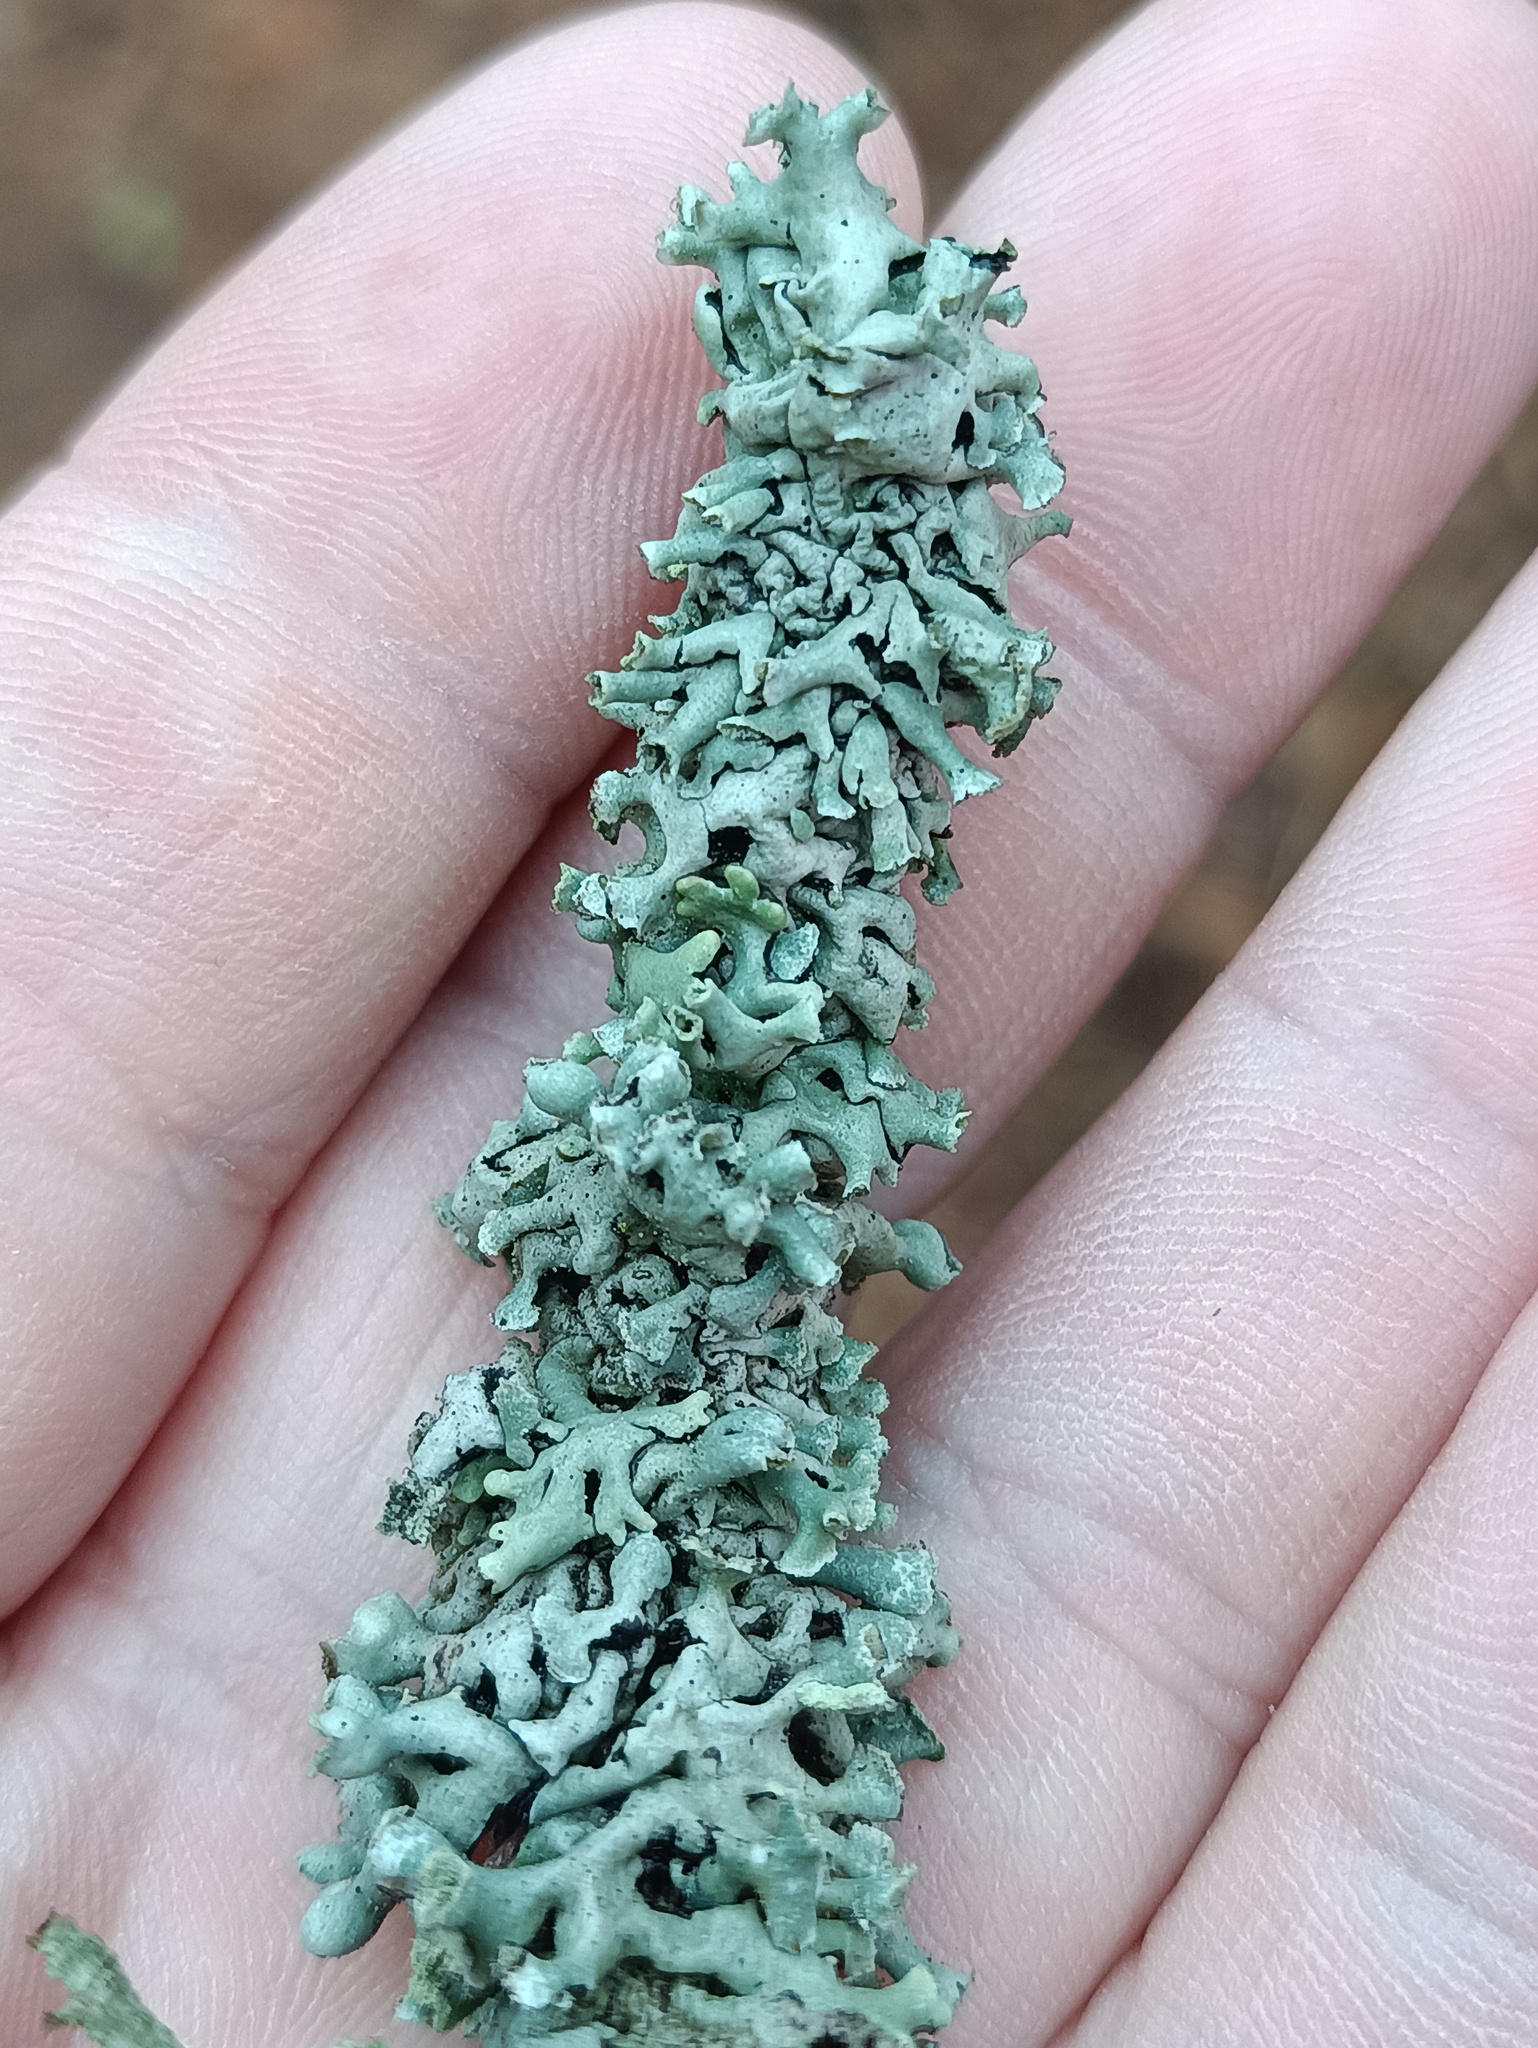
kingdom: Fungi
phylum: Ascomycota
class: Lecanoromycetes
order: Lecanorales
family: Parmeliaceae
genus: Hypogymnia
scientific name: Hypogymnia physodes
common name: Dark crottle
